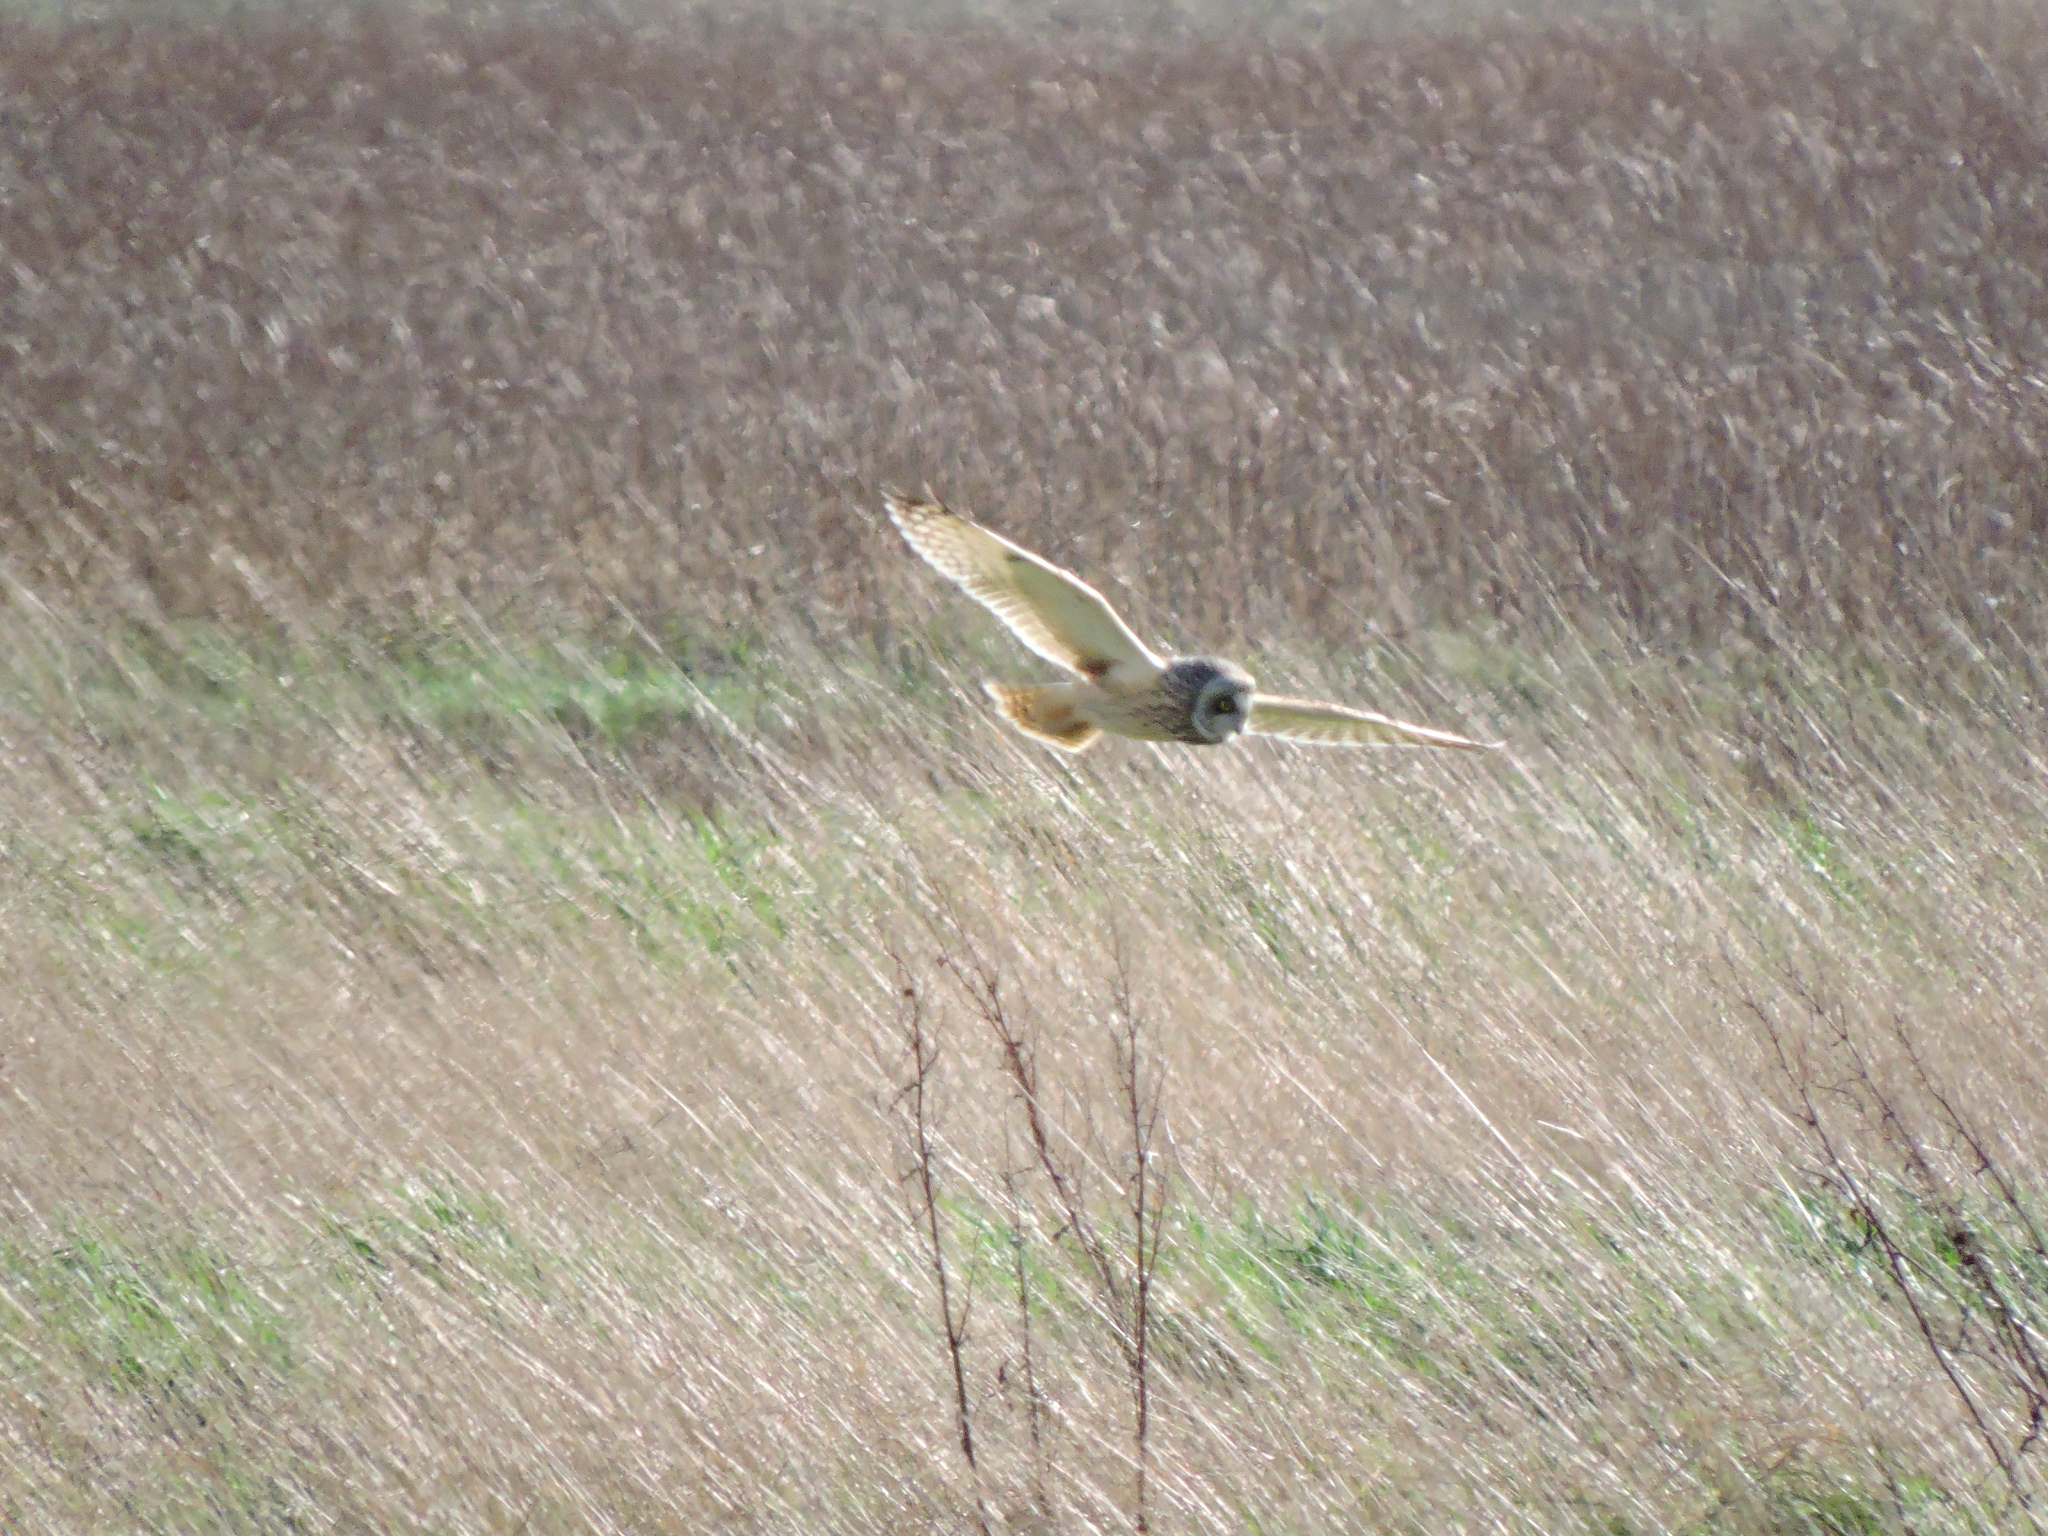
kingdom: Animalia
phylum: Chordata
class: Aves
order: Strigiformes
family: Strigidae
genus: Asio
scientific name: Asio flammeus
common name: Short-eared owl
